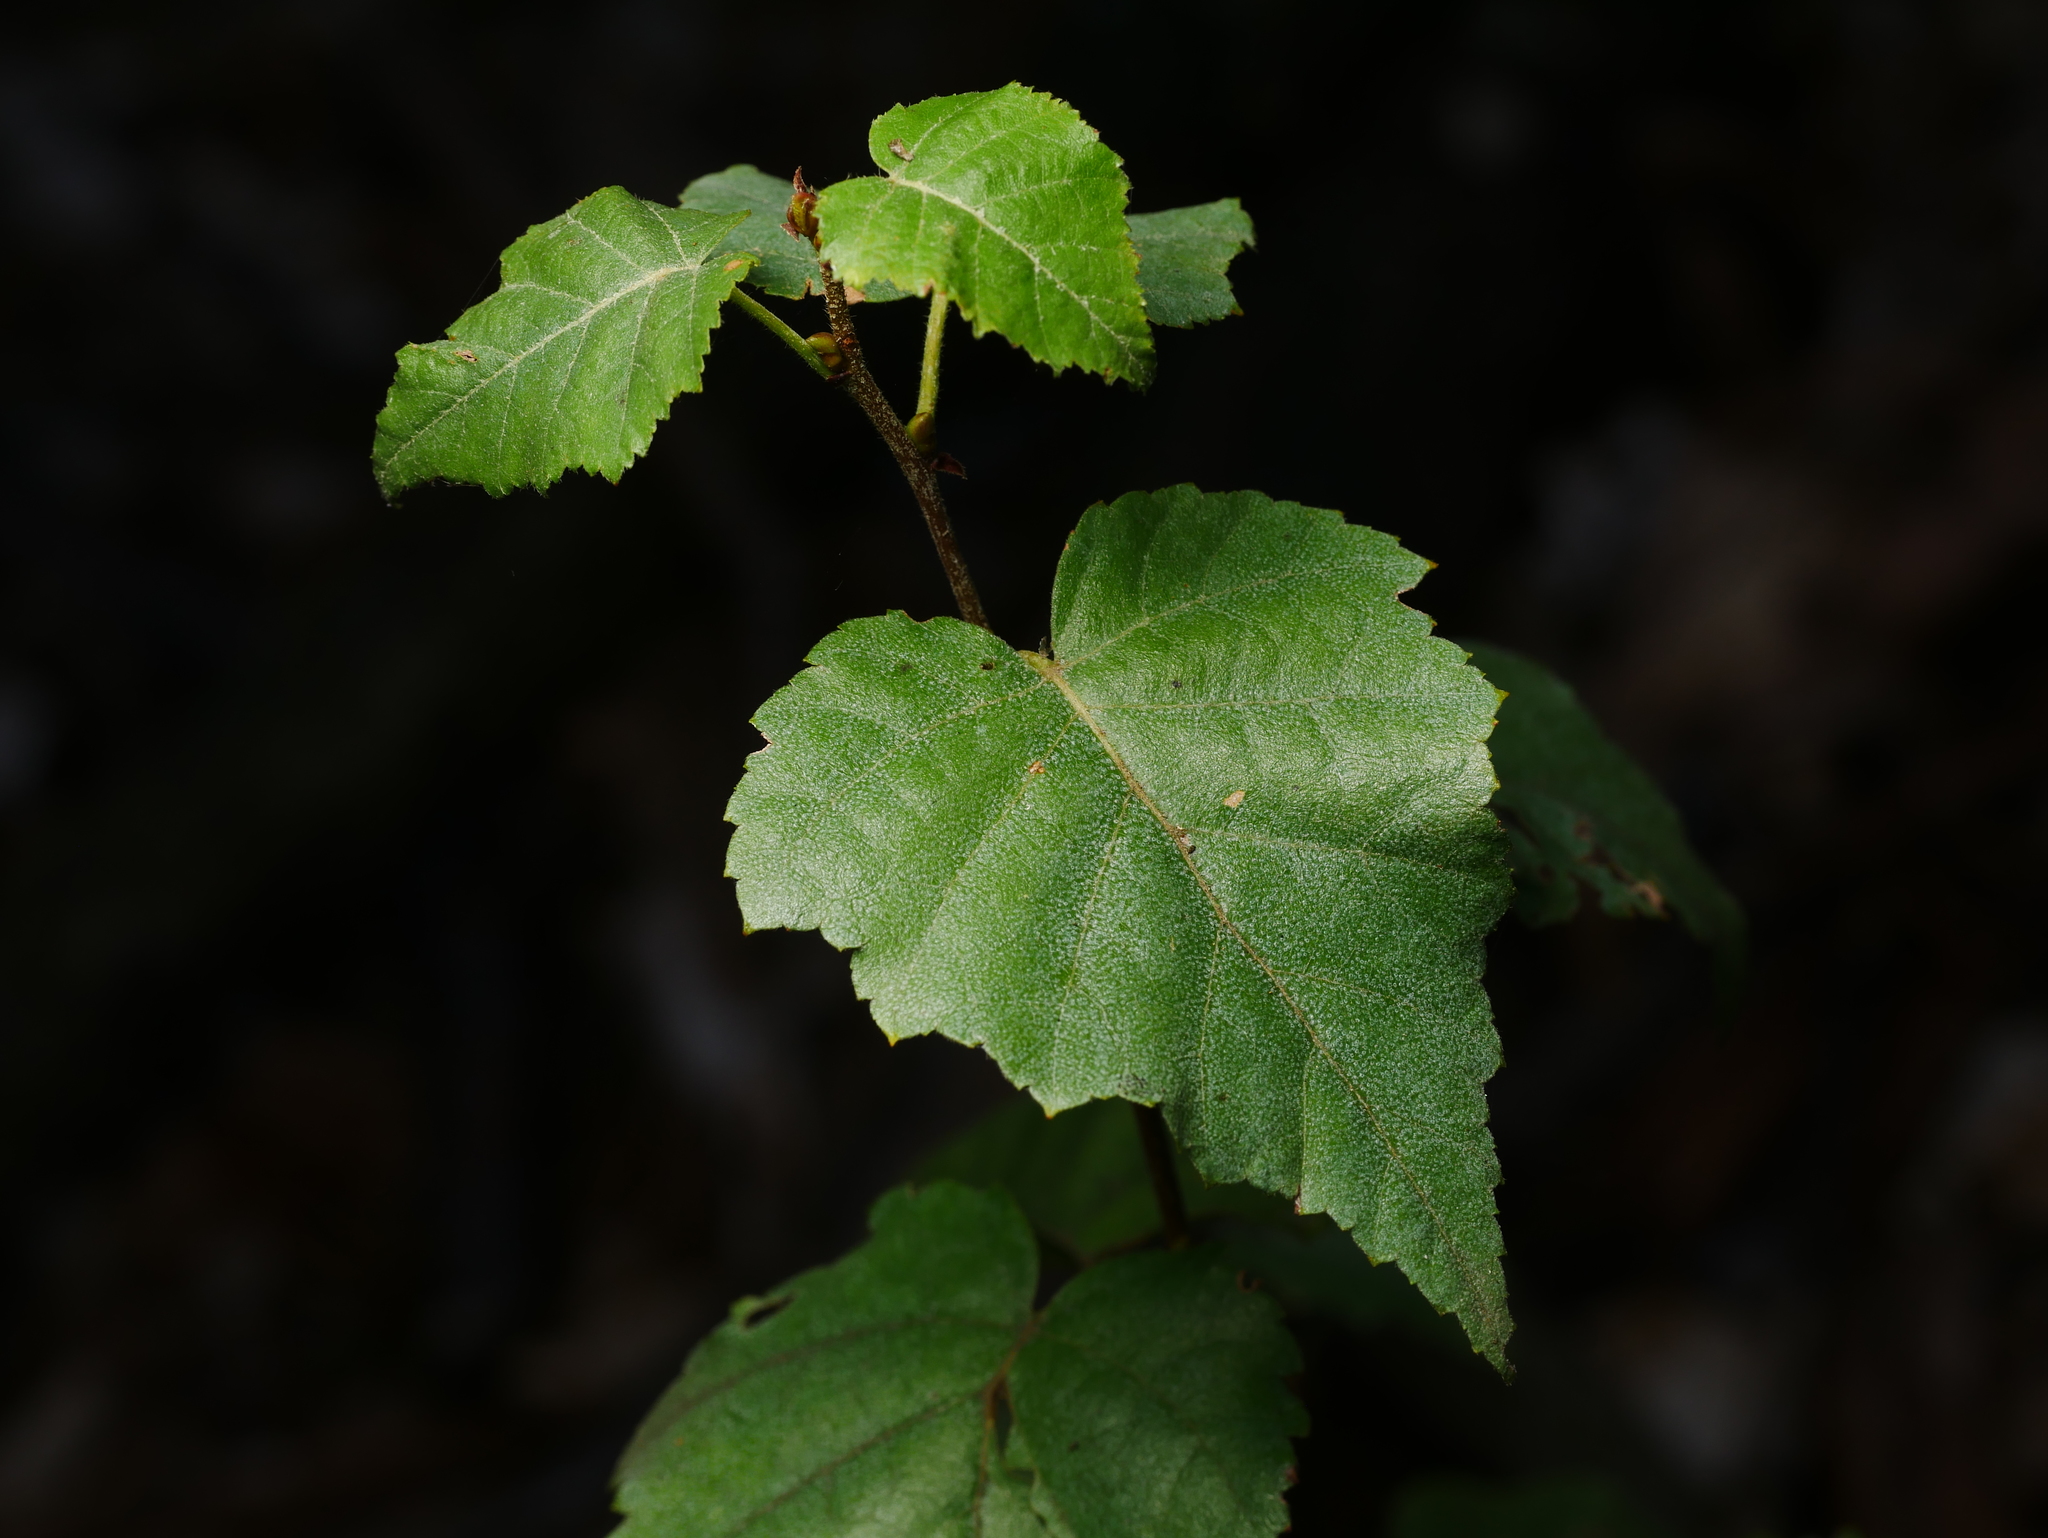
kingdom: Plantae
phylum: Tracheophyta
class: Magnoliopsida
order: Fagales
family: Betulaceae
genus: Betula
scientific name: Betula pendula
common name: Silver birch
